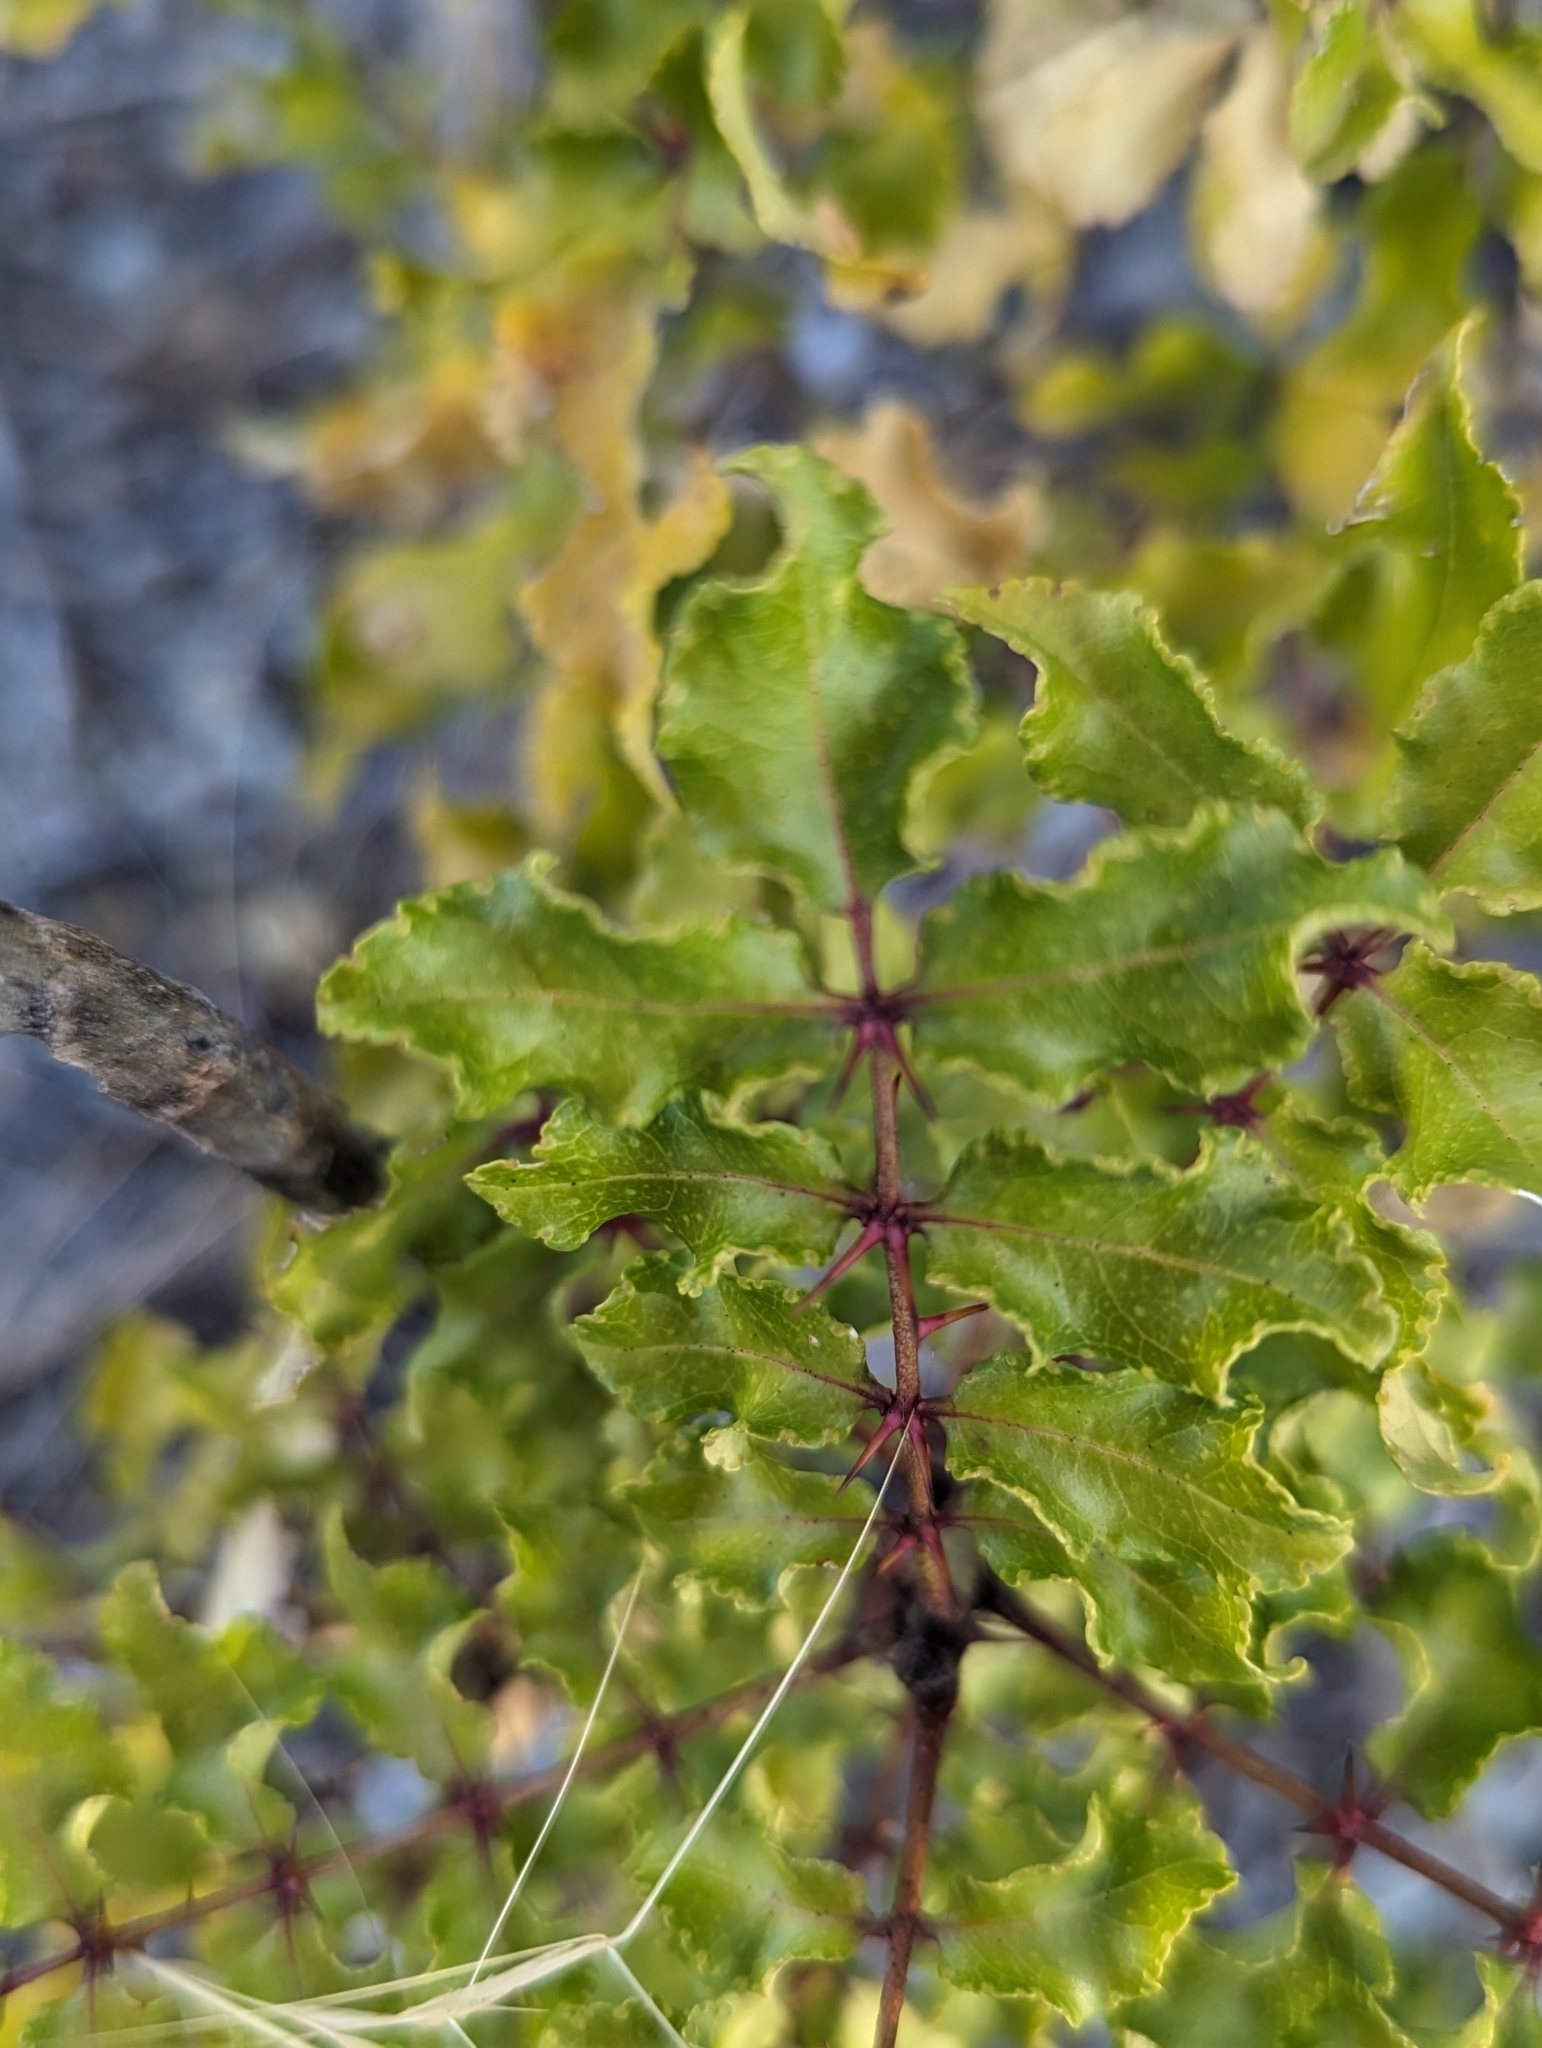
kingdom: Plantae
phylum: Tracheophyta
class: Magnoliopsida
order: Sapindales
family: Rutaceae
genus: Zanthoxylum
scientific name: Zanthoxylum clava-herculis
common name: Hercules'-club
